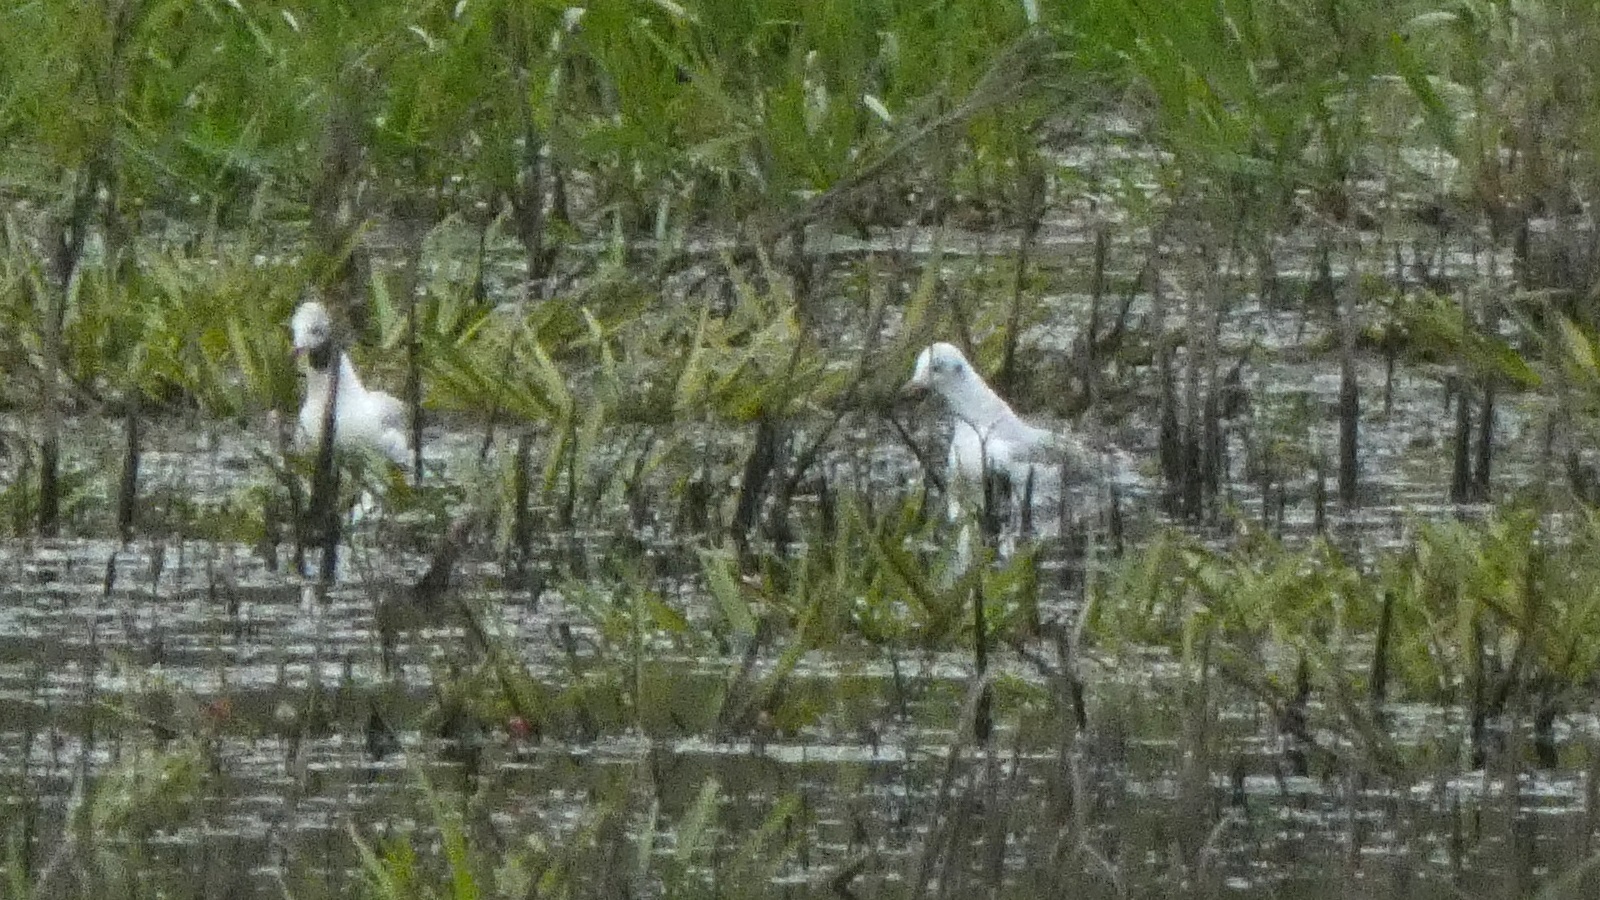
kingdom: Animalia
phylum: Chordata
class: Aves
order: Charadriiformes
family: Laridae
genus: Chroicocephalus
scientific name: Chroicocephalus ridibundus
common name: Black-headed gull
